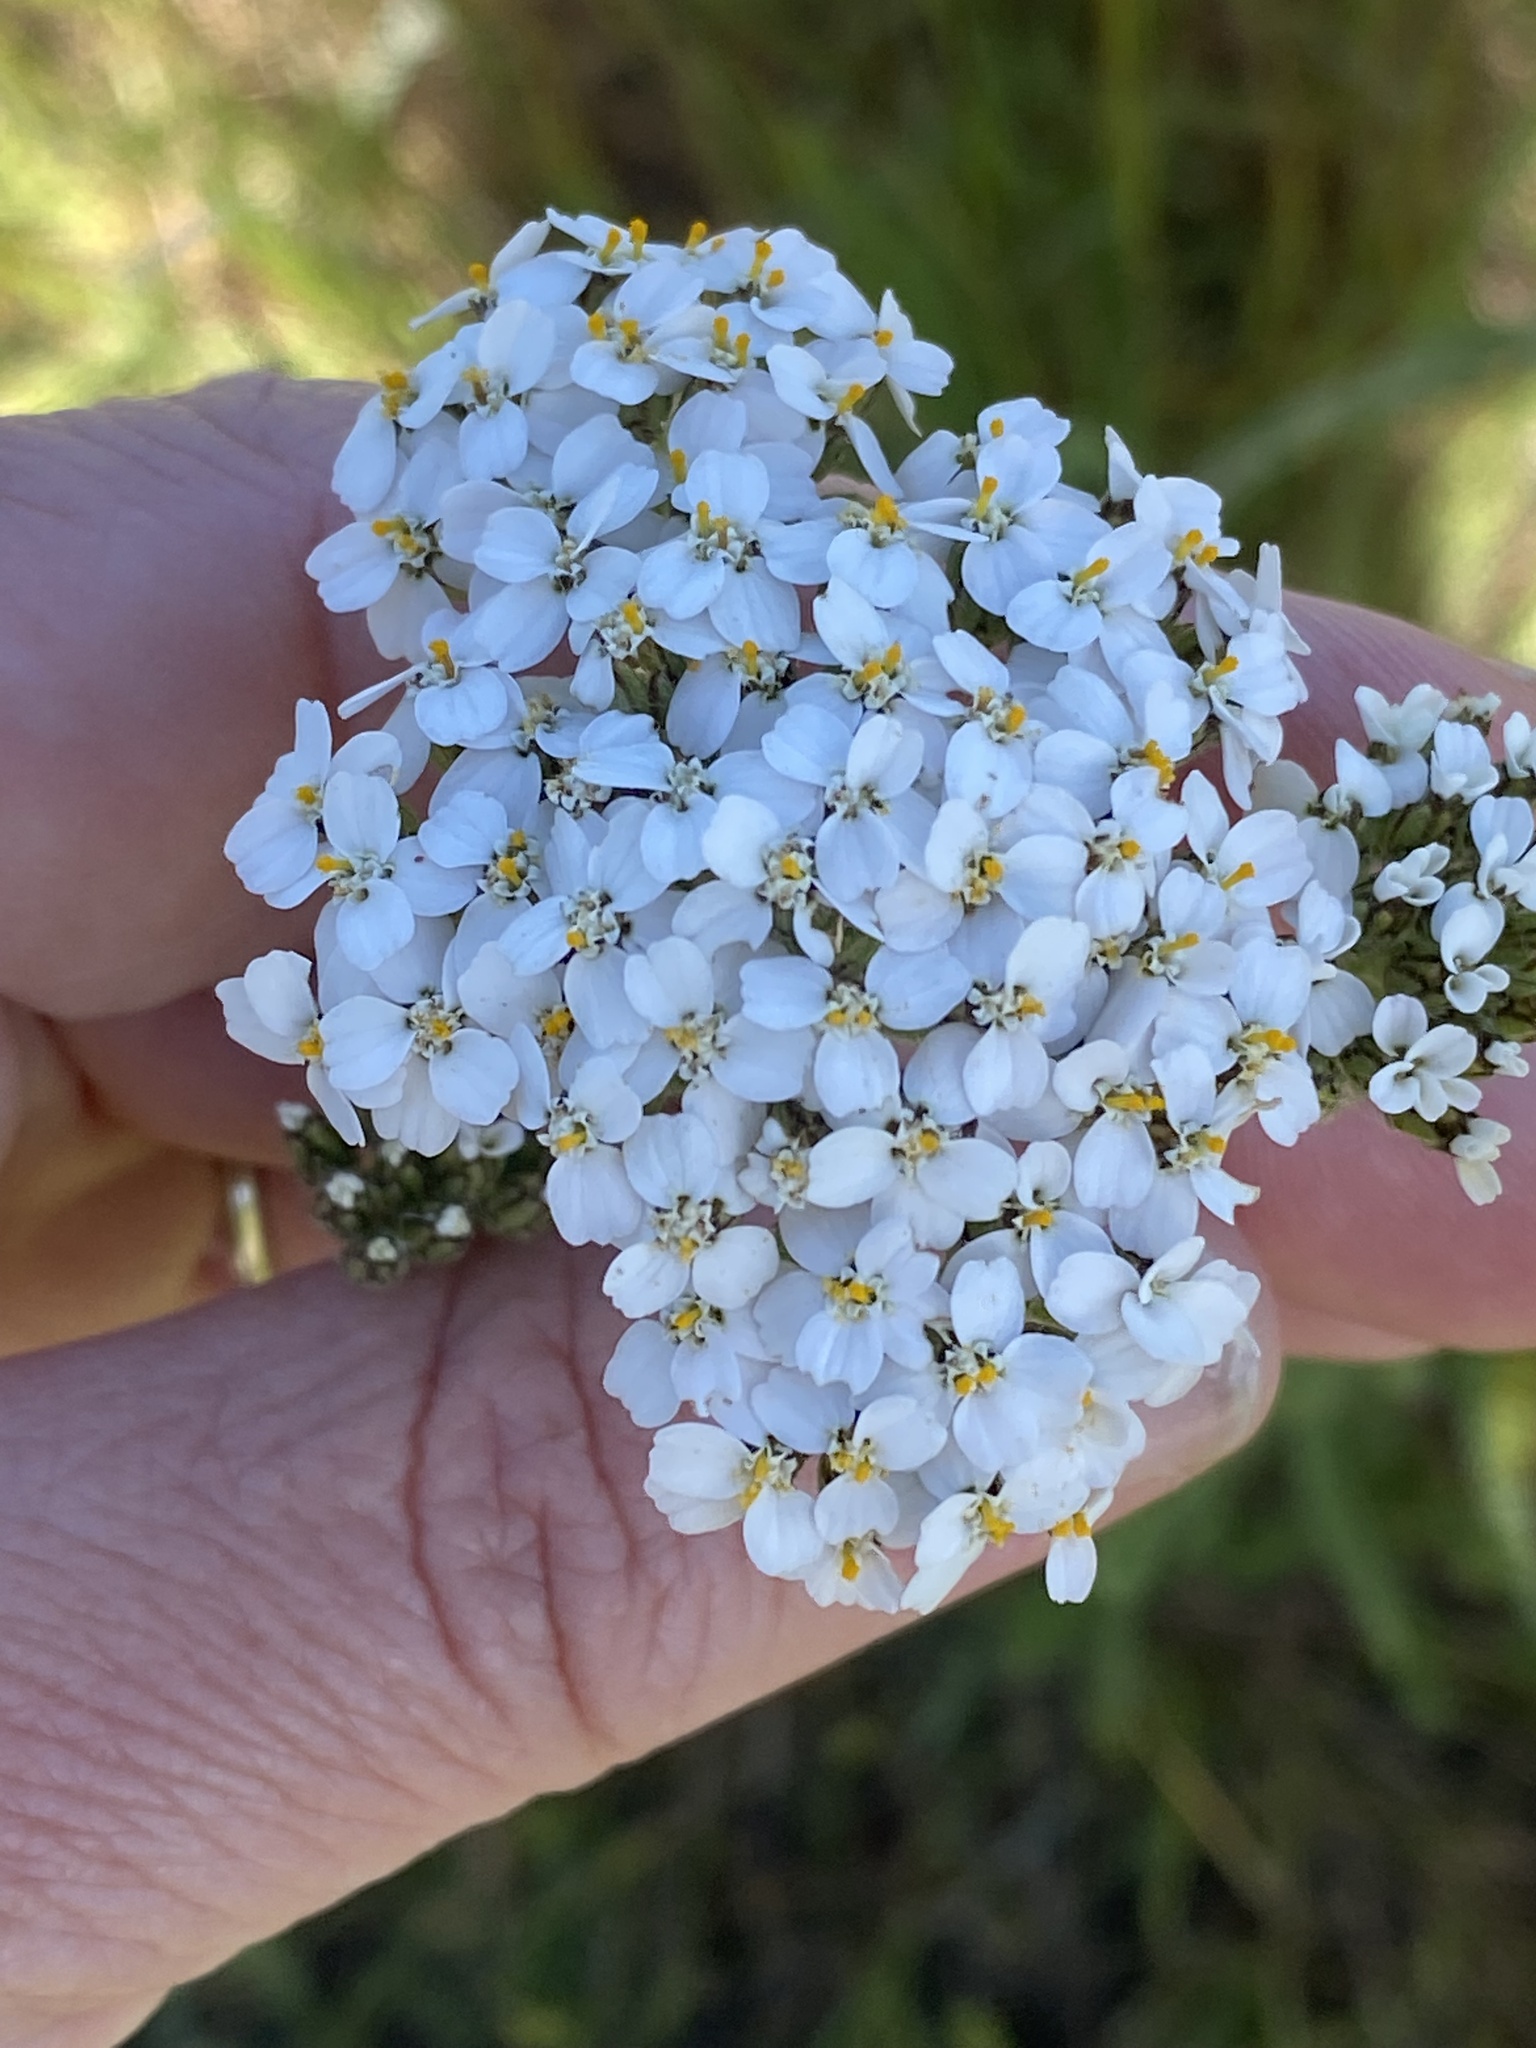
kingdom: Plantae
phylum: Tracheophyta
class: Magnoliopsida
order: Asterales
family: Asteraceae
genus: Achillea
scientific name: Achillea millefolium
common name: Yarrow
